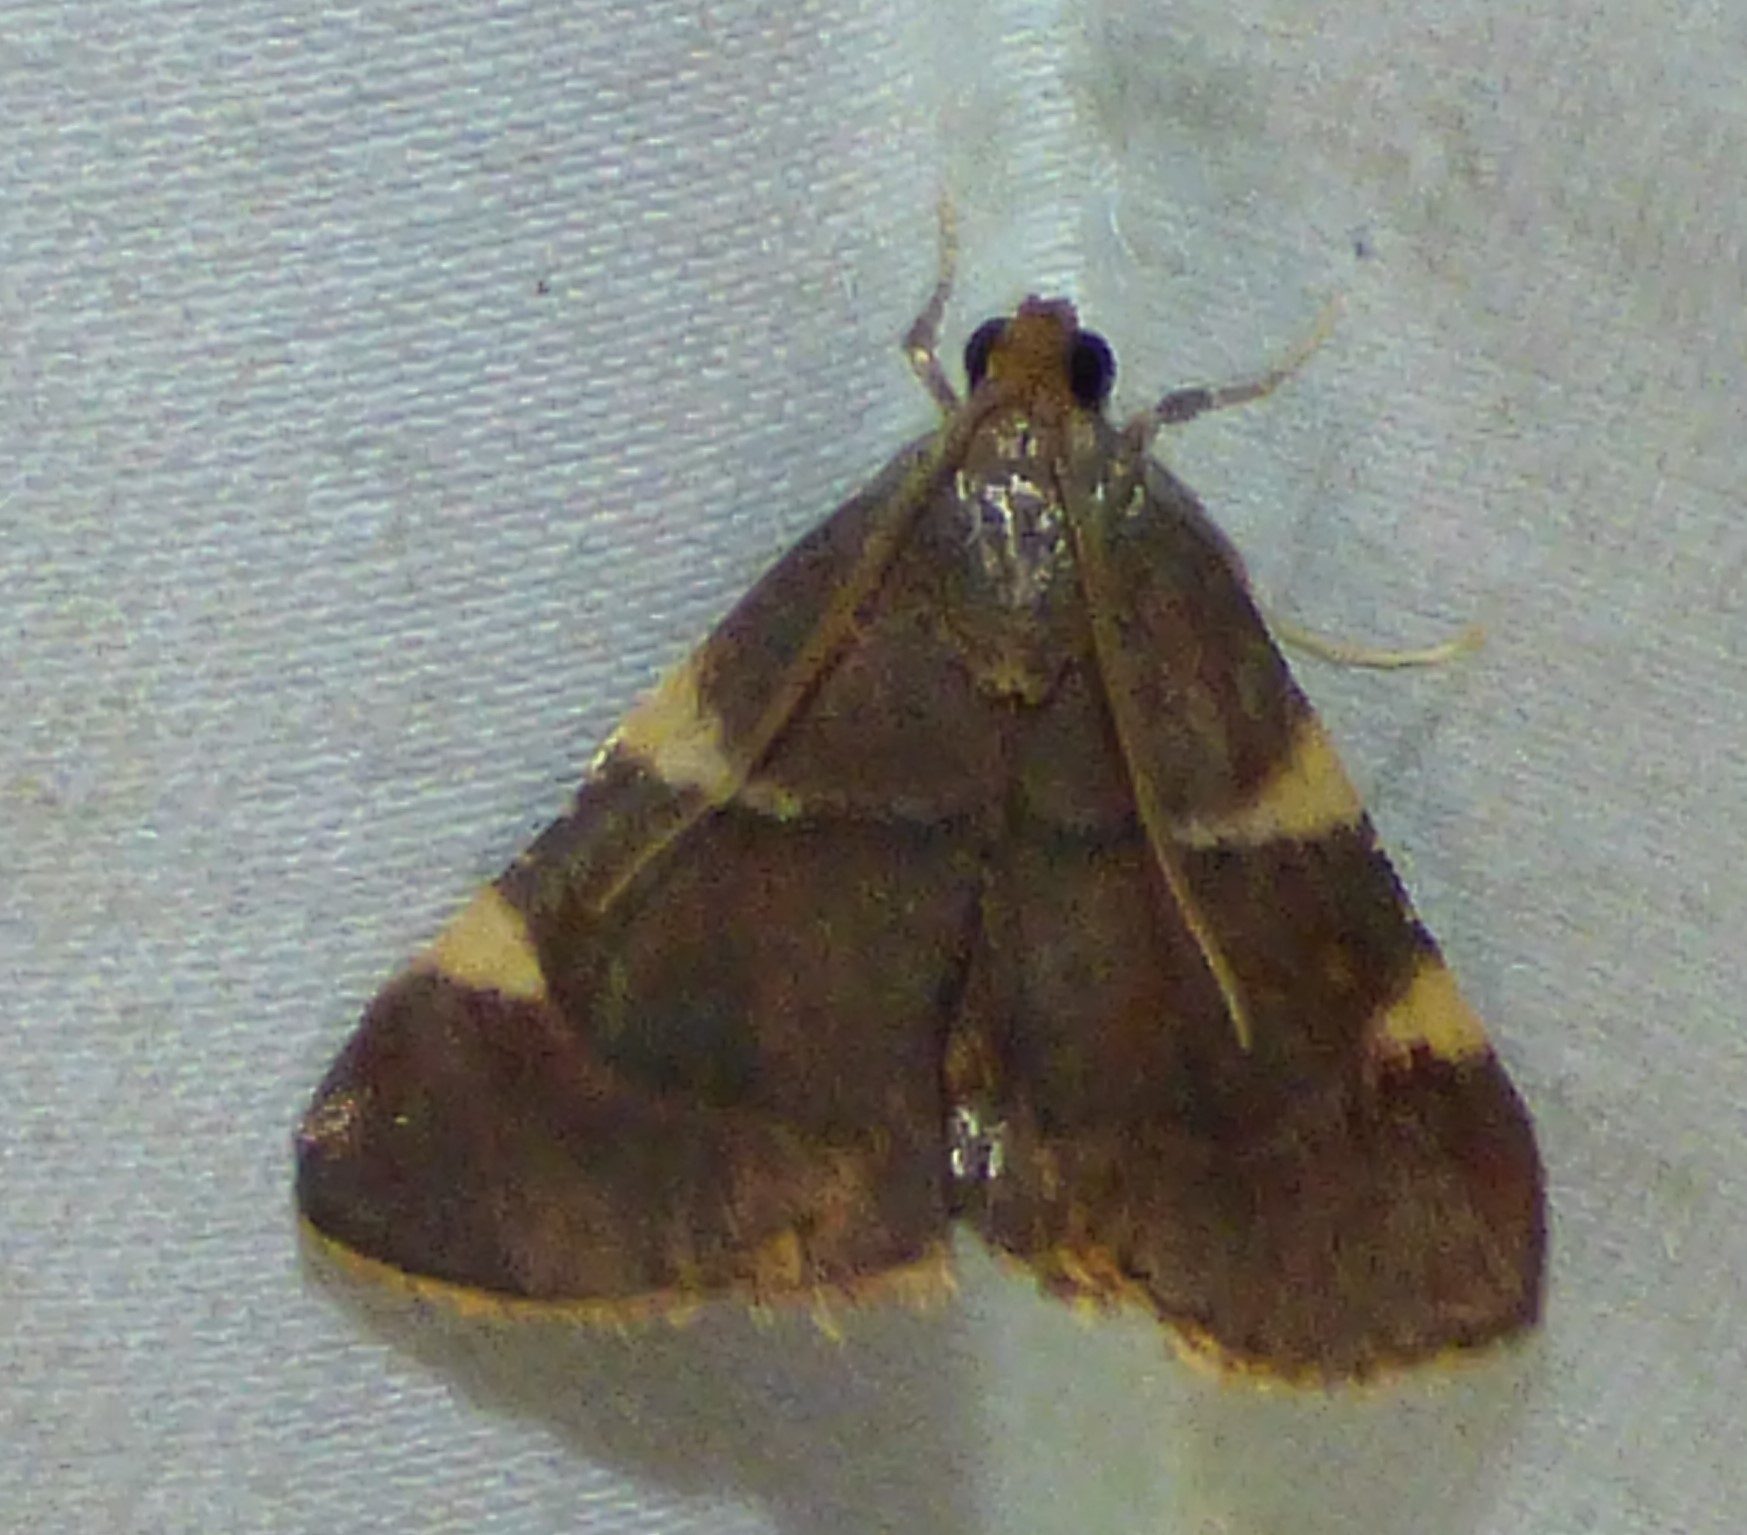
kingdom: Animalia
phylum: Arthropoda
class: Insecta
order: Lepidoptera
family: Pyralidae
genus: Hypsopygia
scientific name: Hypsopygia olinalis
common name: Yellow-fringed dolichomia moth
